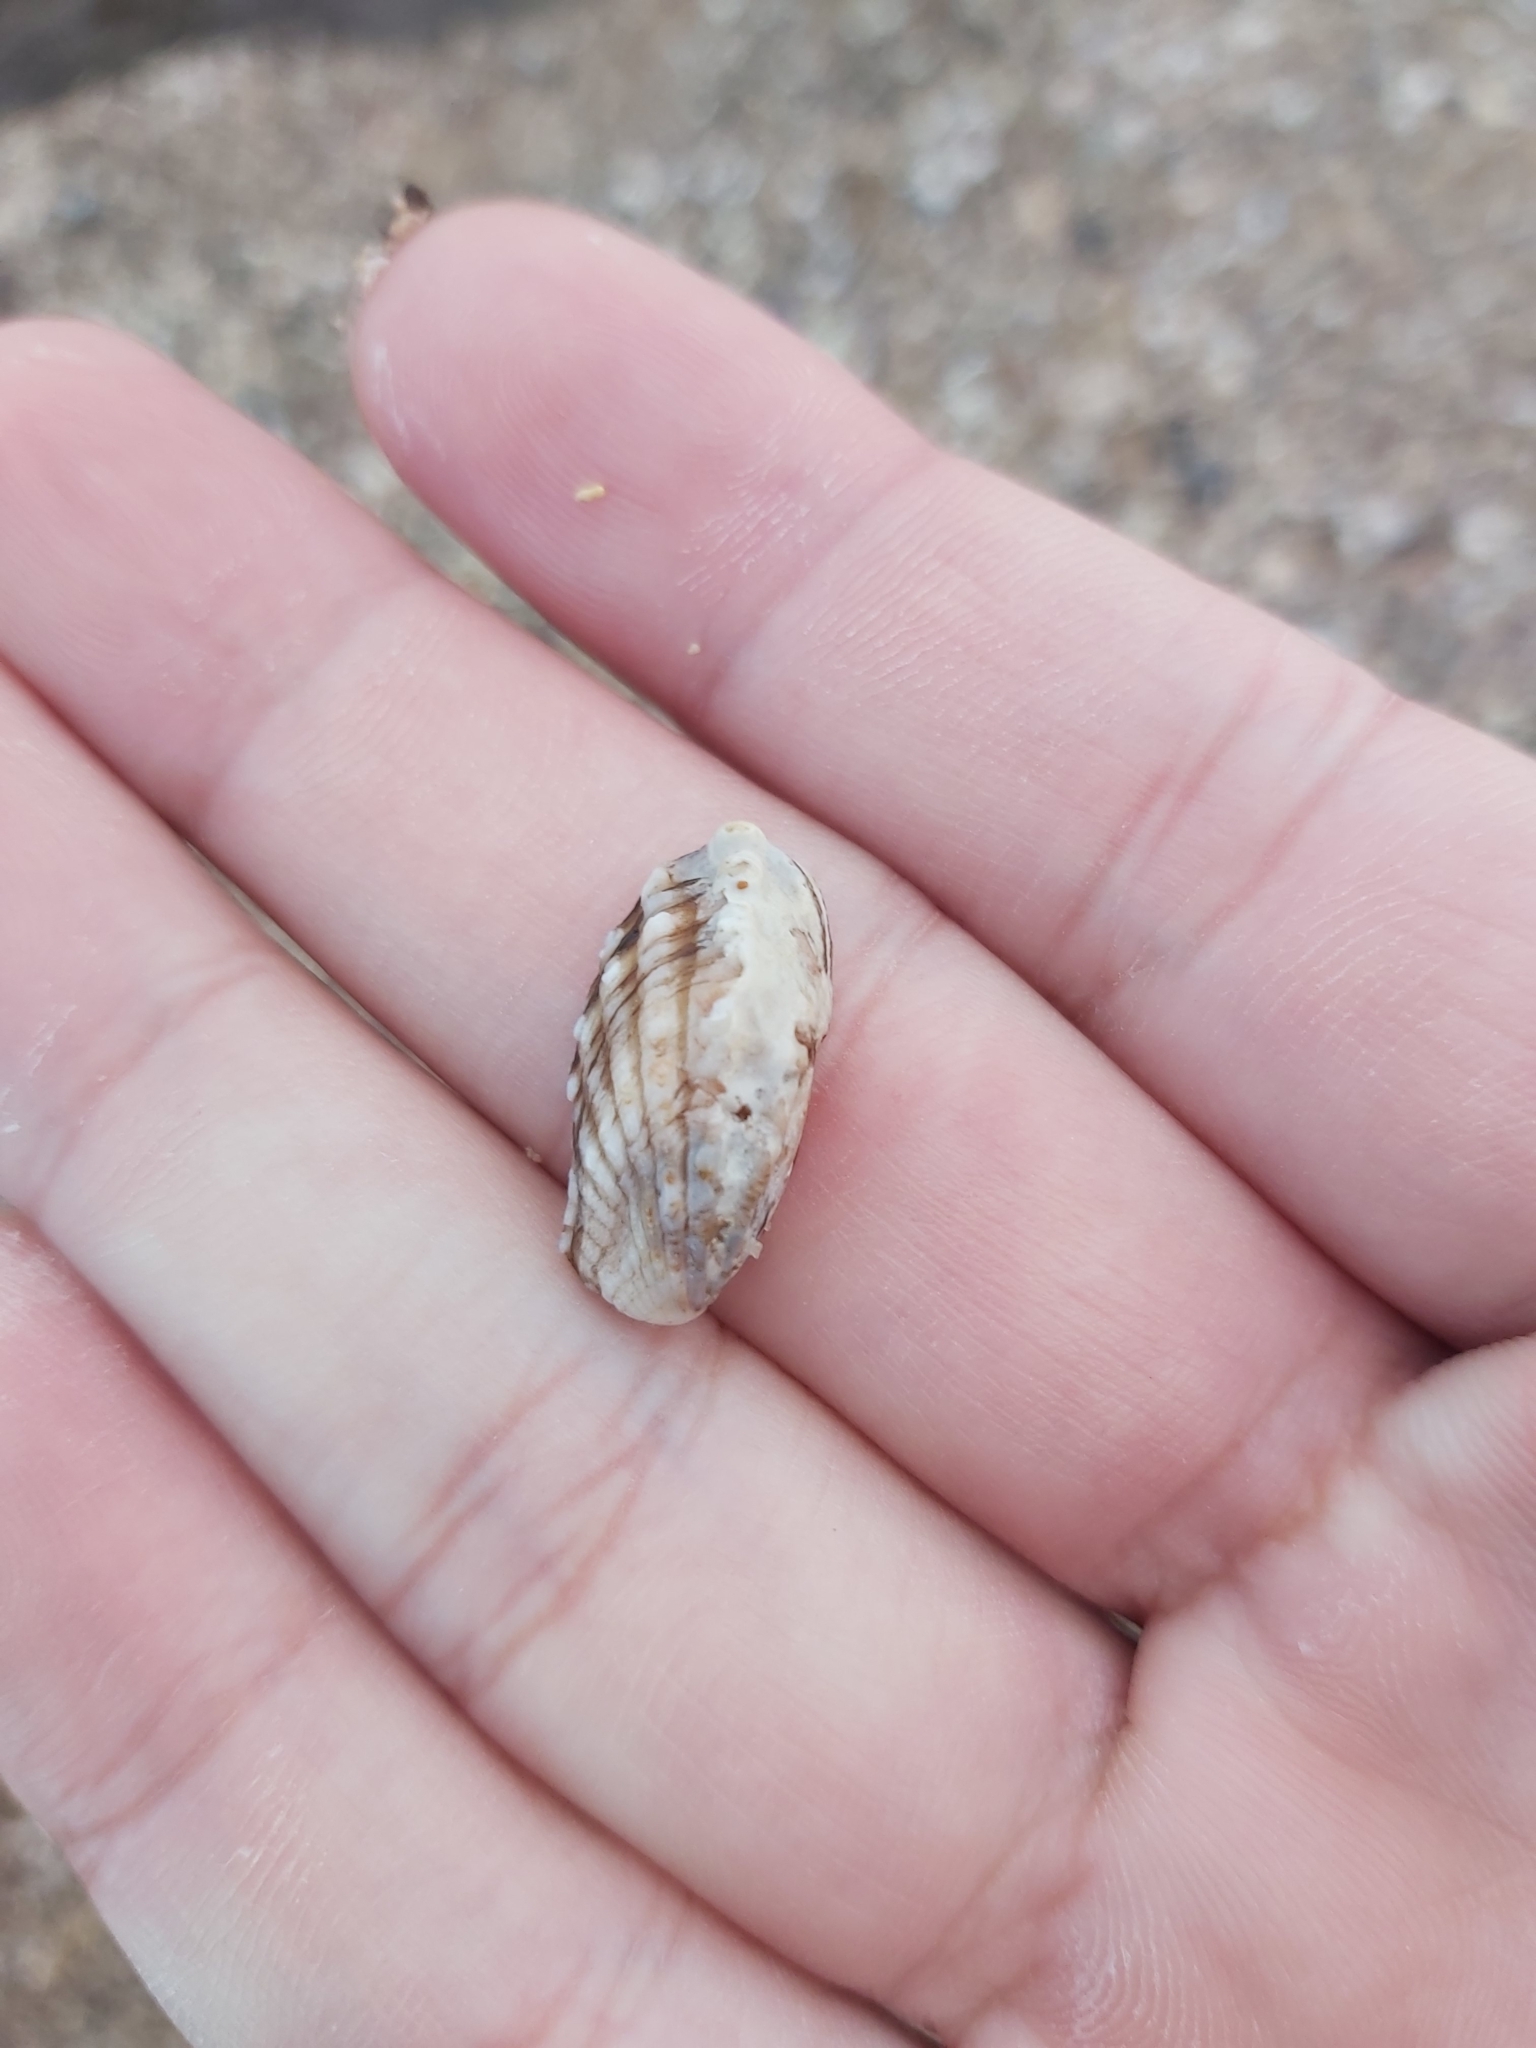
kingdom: Animalia
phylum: Mollusca
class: Bivalvia
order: Carditida
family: Carditidae
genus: Cardita
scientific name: Cardita aviculina
